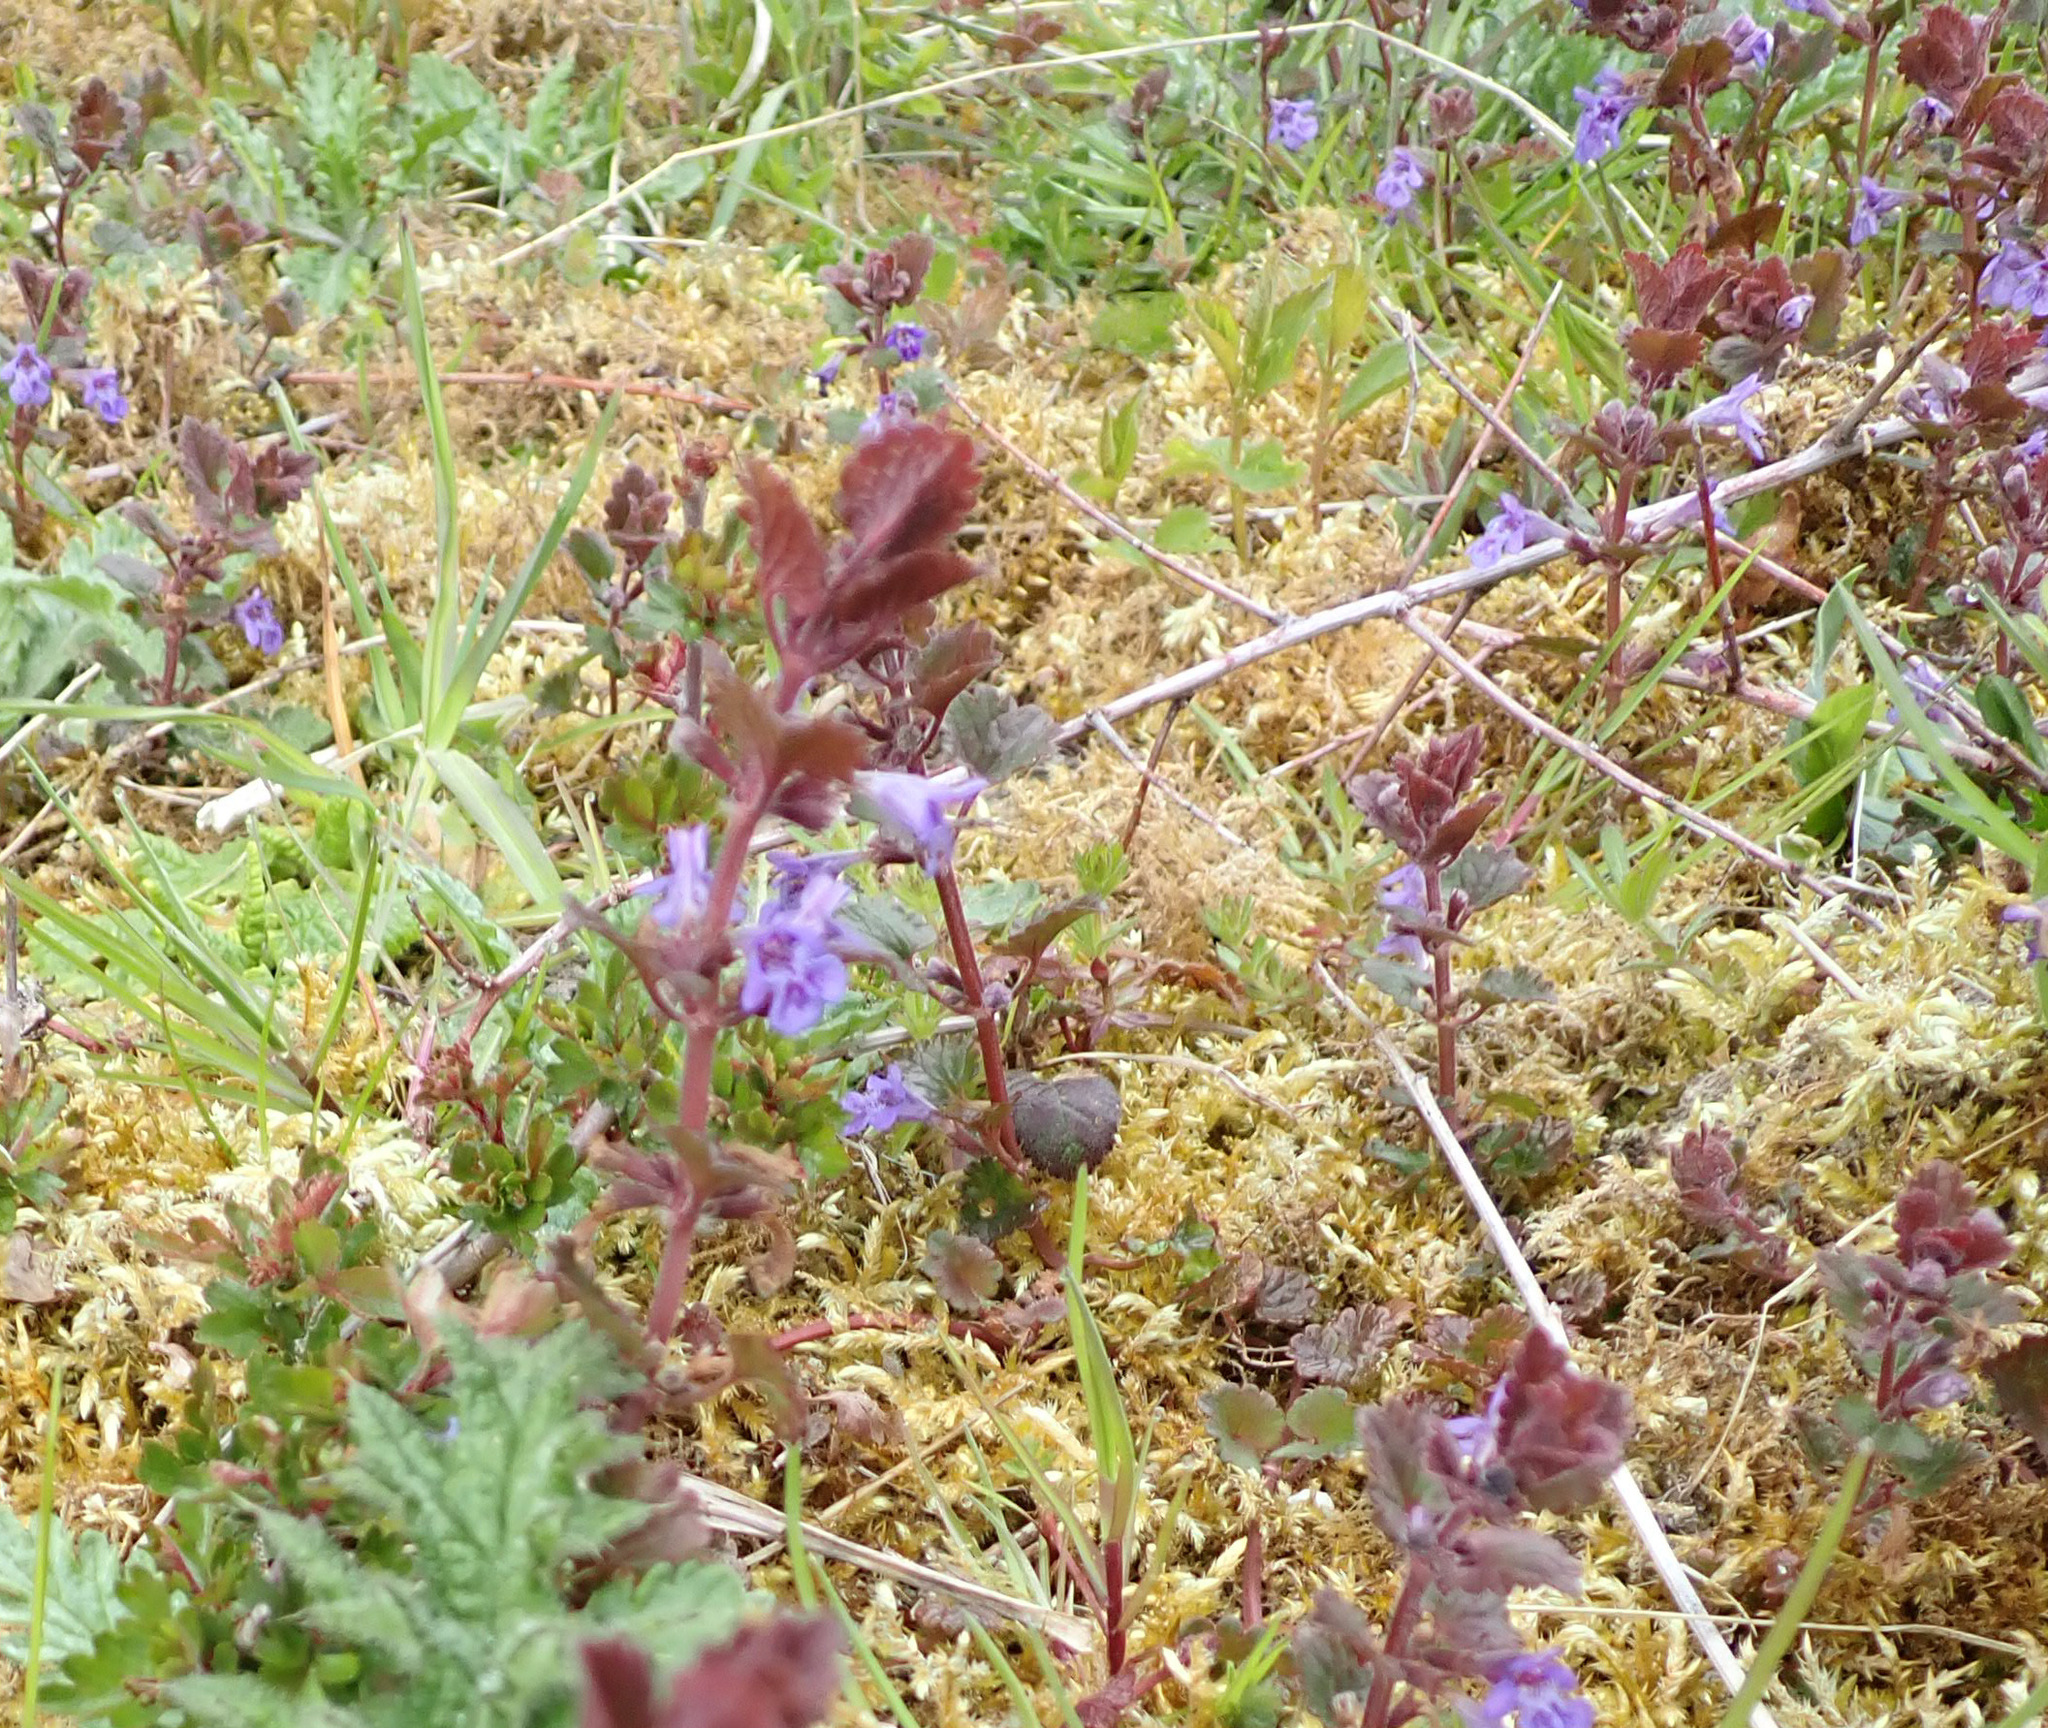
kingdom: Plantae
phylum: Tracheophyta
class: Magnoliopsida
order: Lamiales
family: Lamiaceae
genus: Glechoma
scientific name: Glechoma hederacea
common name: Ground ivy
